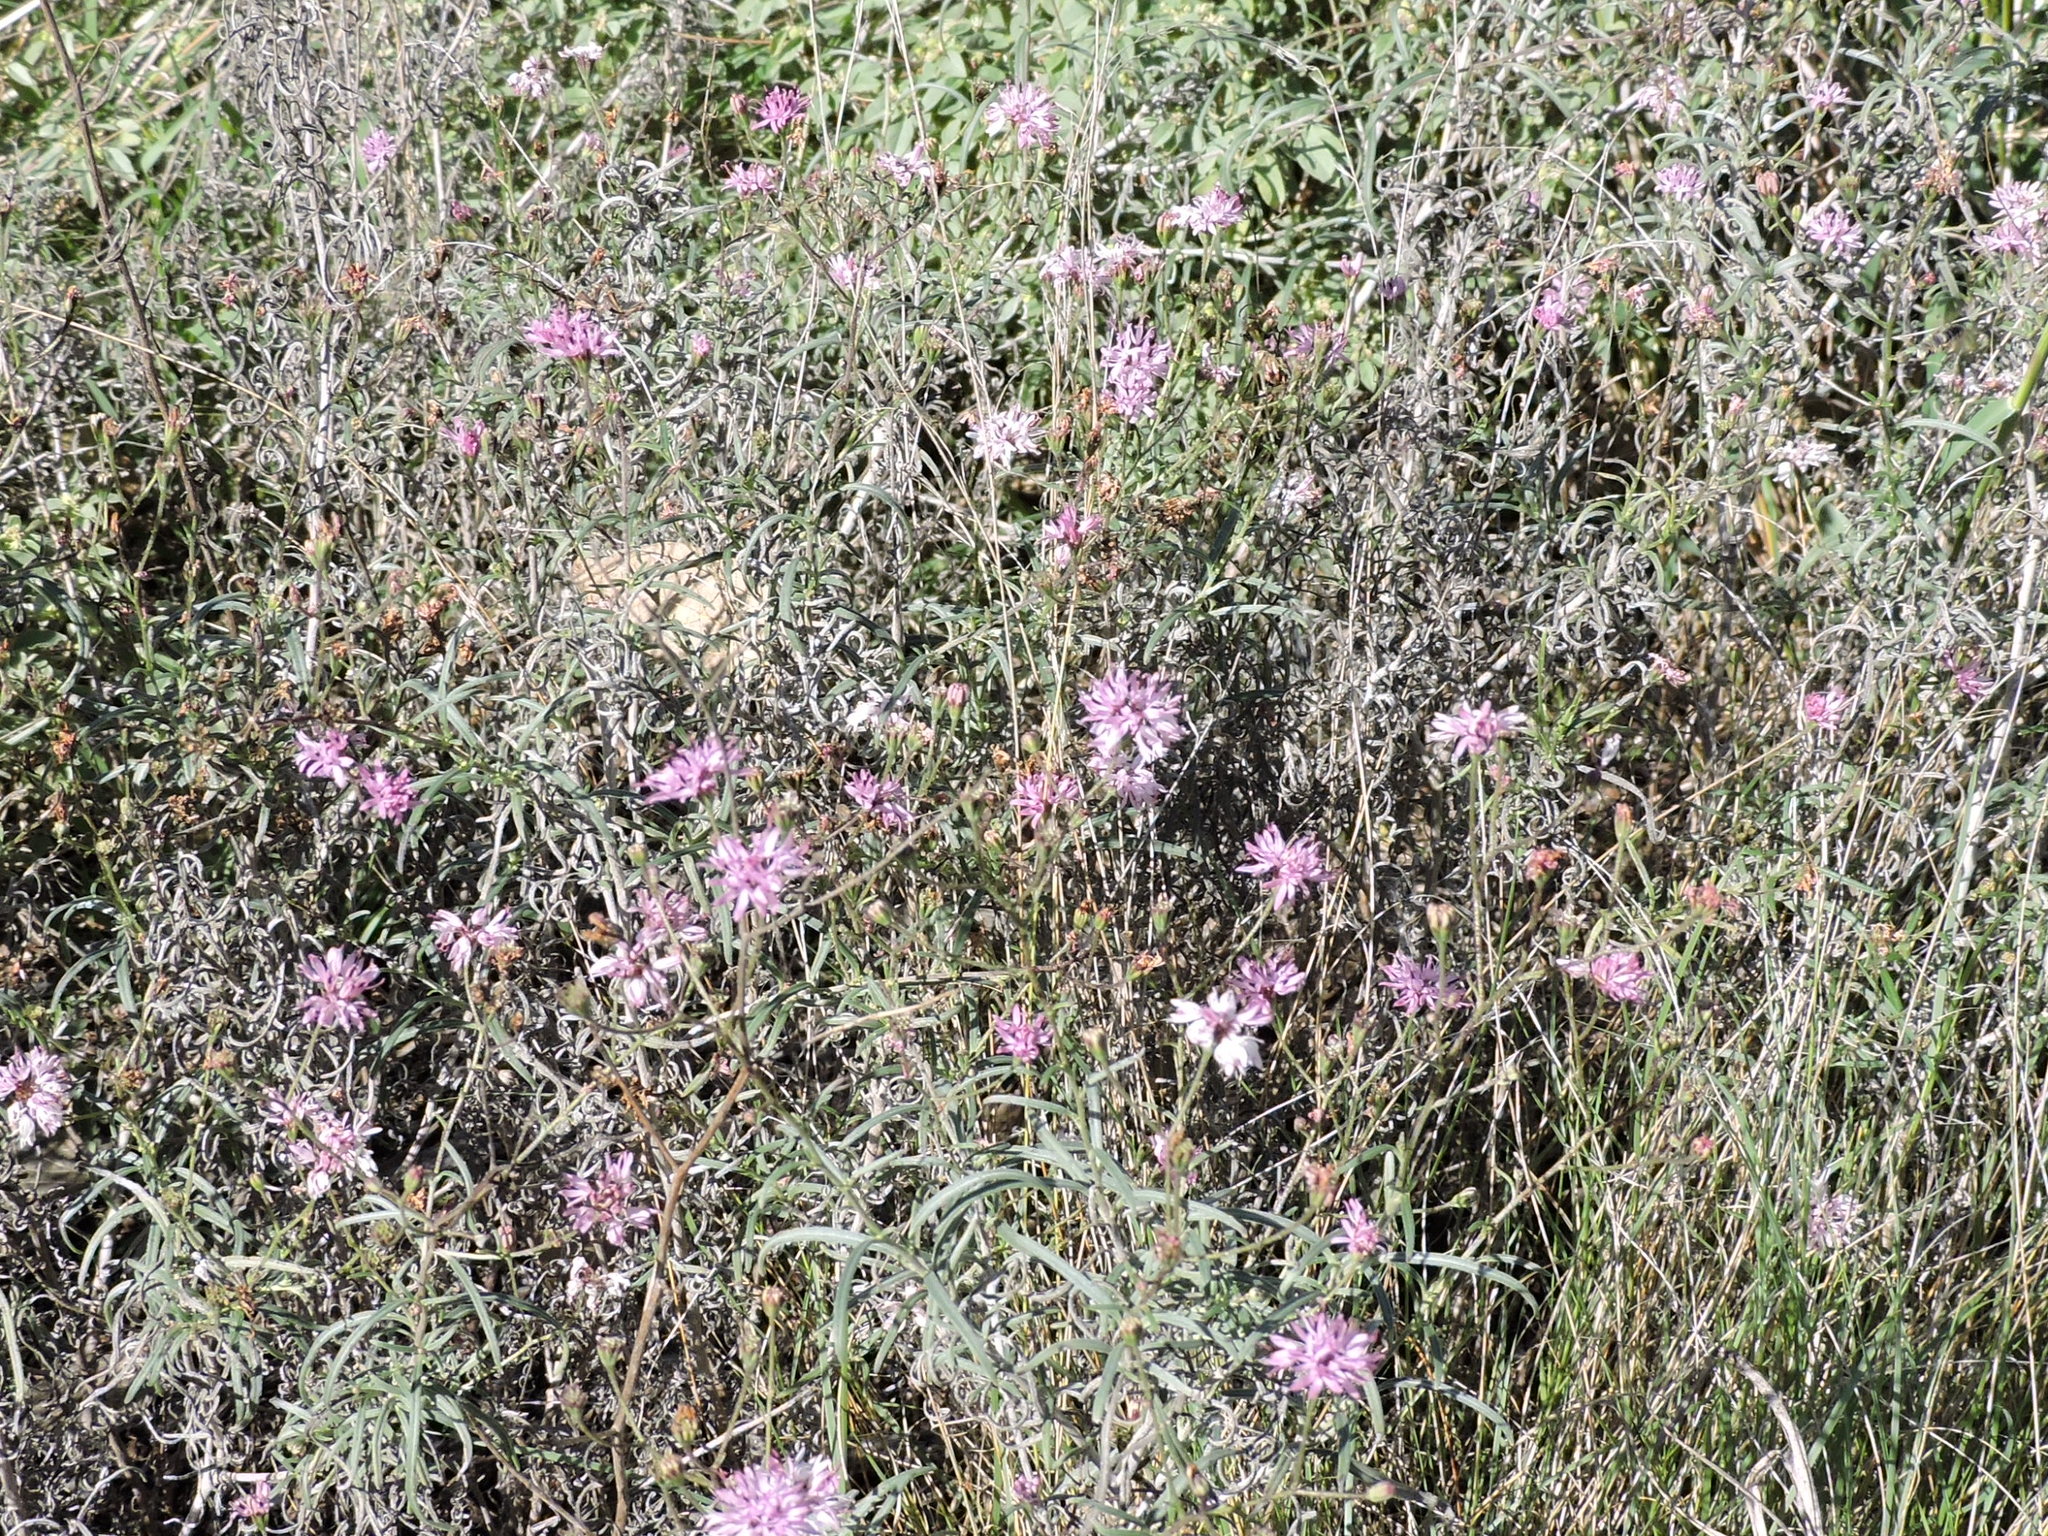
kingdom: Plantae
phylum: Tracheophyta
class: Magnoliopsida
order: Asterales
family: Asteraceae
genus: Palafoxia
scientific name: Palafoxia callosa
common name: Small palafox
